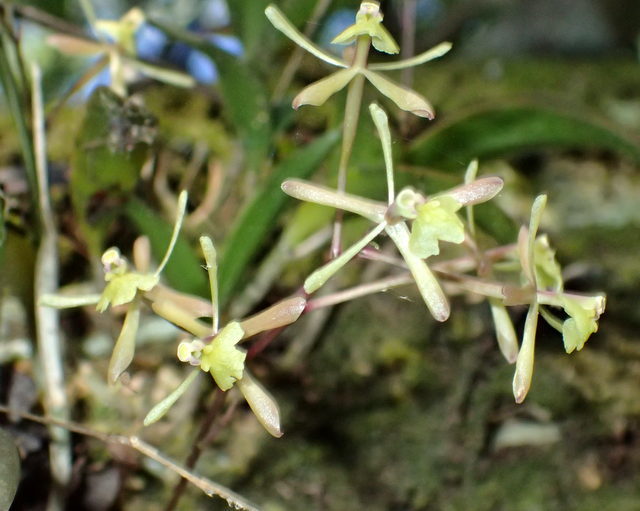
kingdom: Plantae
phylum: Tracheophyta
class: Liliopsida
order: Asparagales
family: Orchidaceae
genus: Epidendrum
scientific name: Epidendrum conopseum
